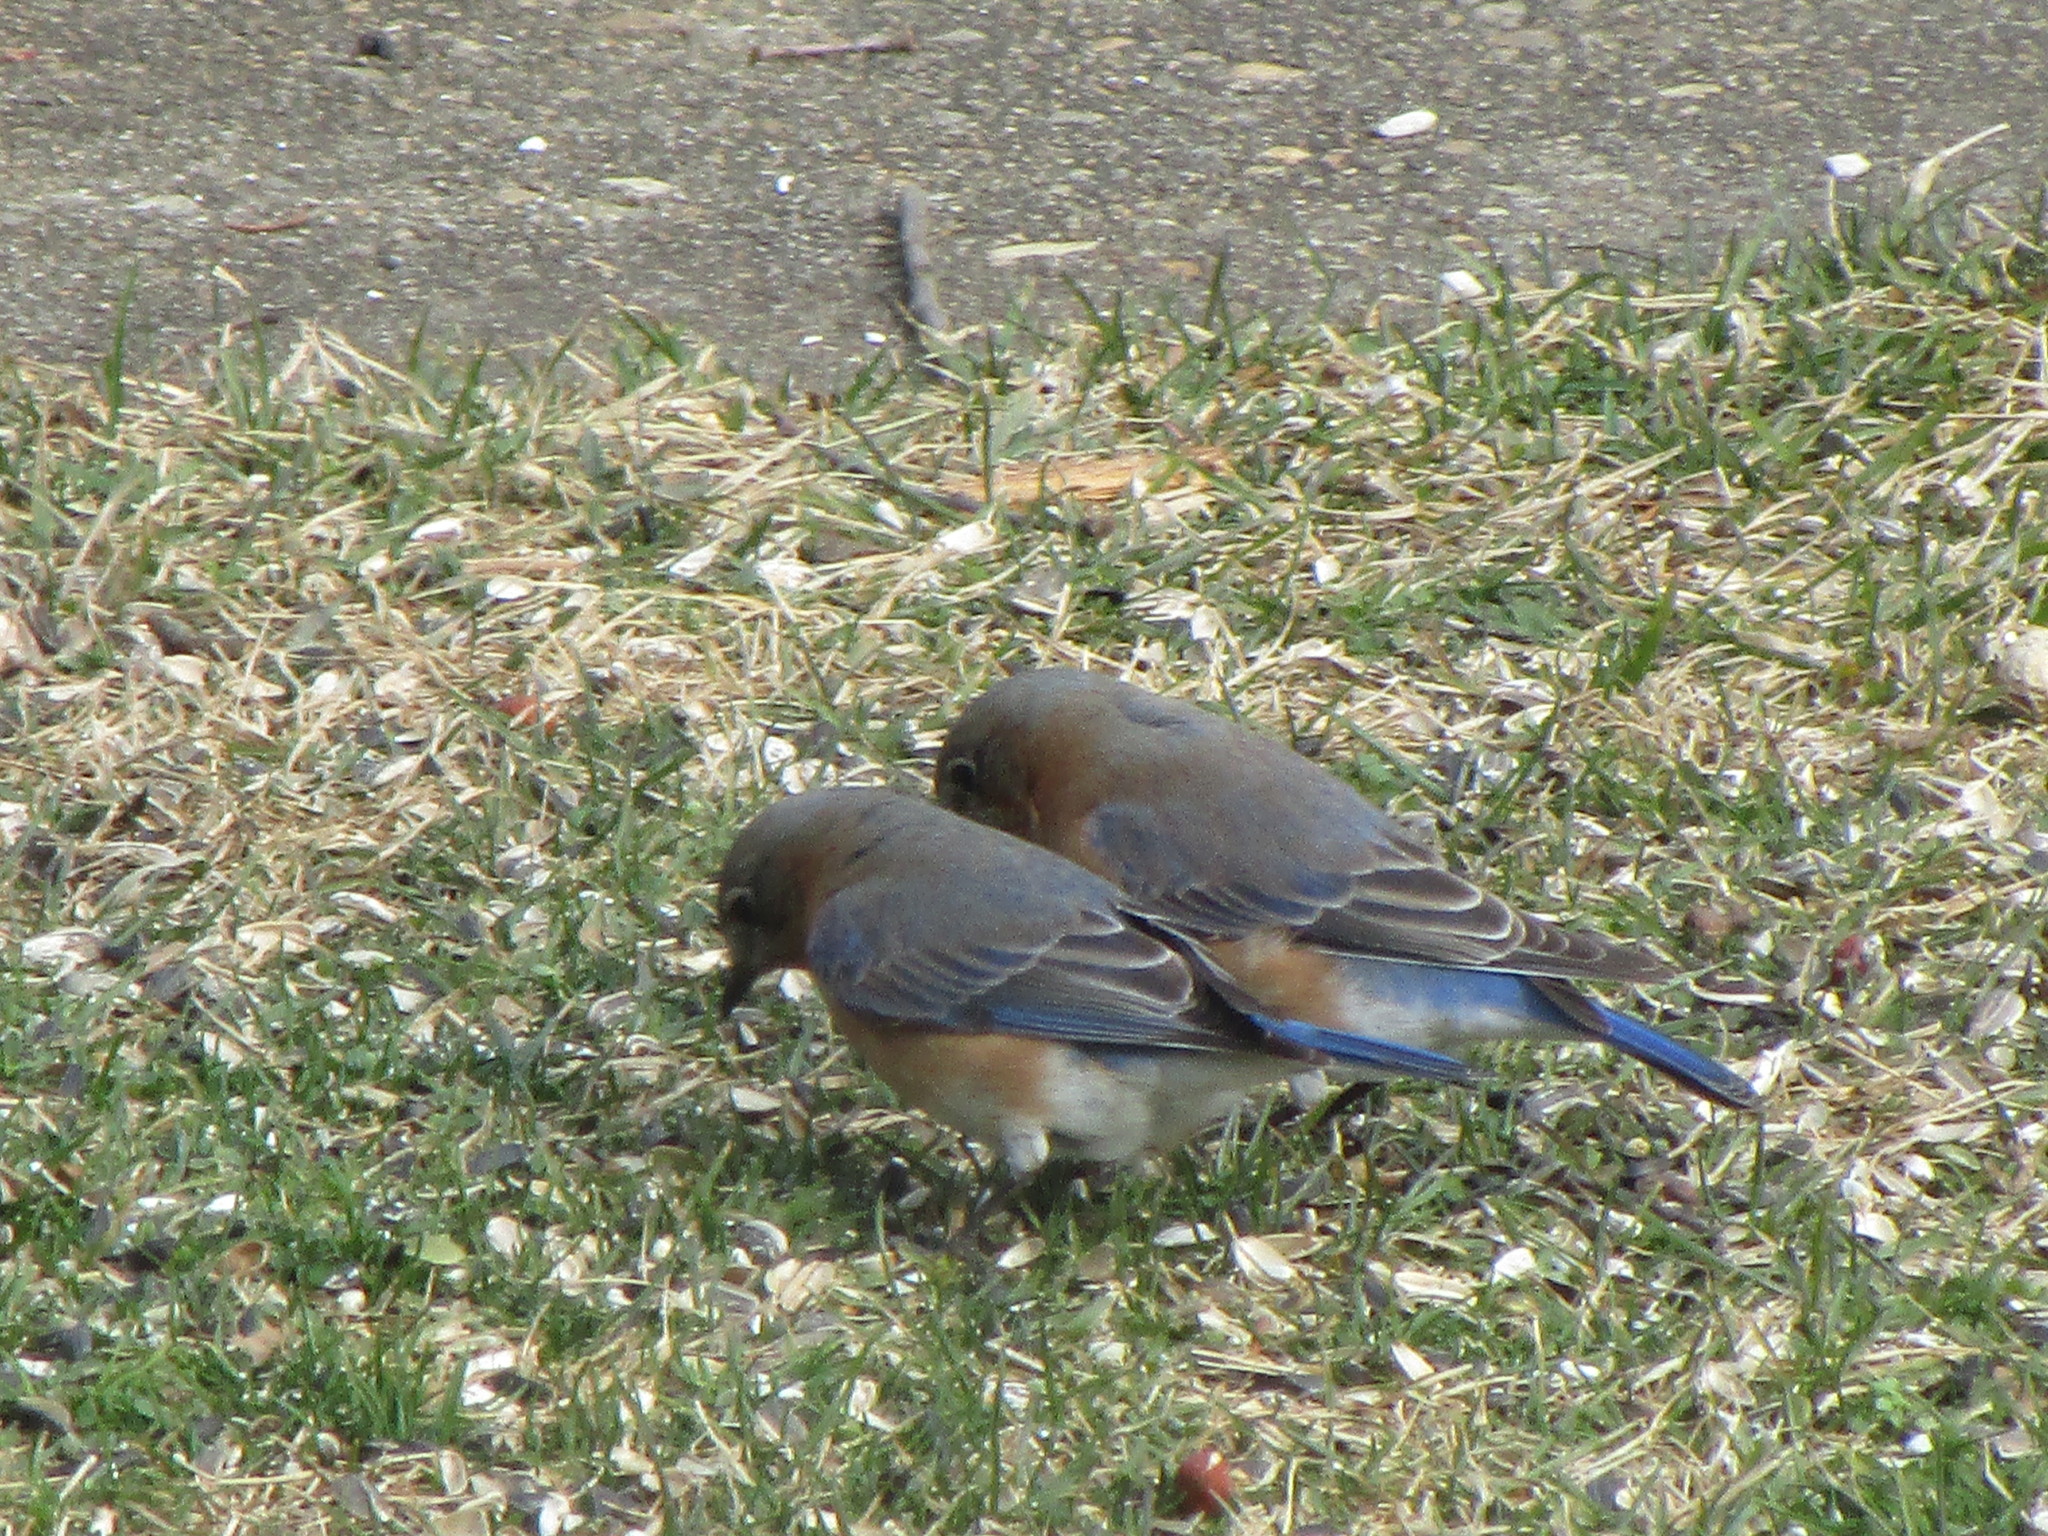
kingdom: Animalia
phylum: Chordata
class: Aves
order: Passeriformes
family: Turdidae
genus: Sialia
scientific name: Sialia sialis
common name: Eastern bluebird
